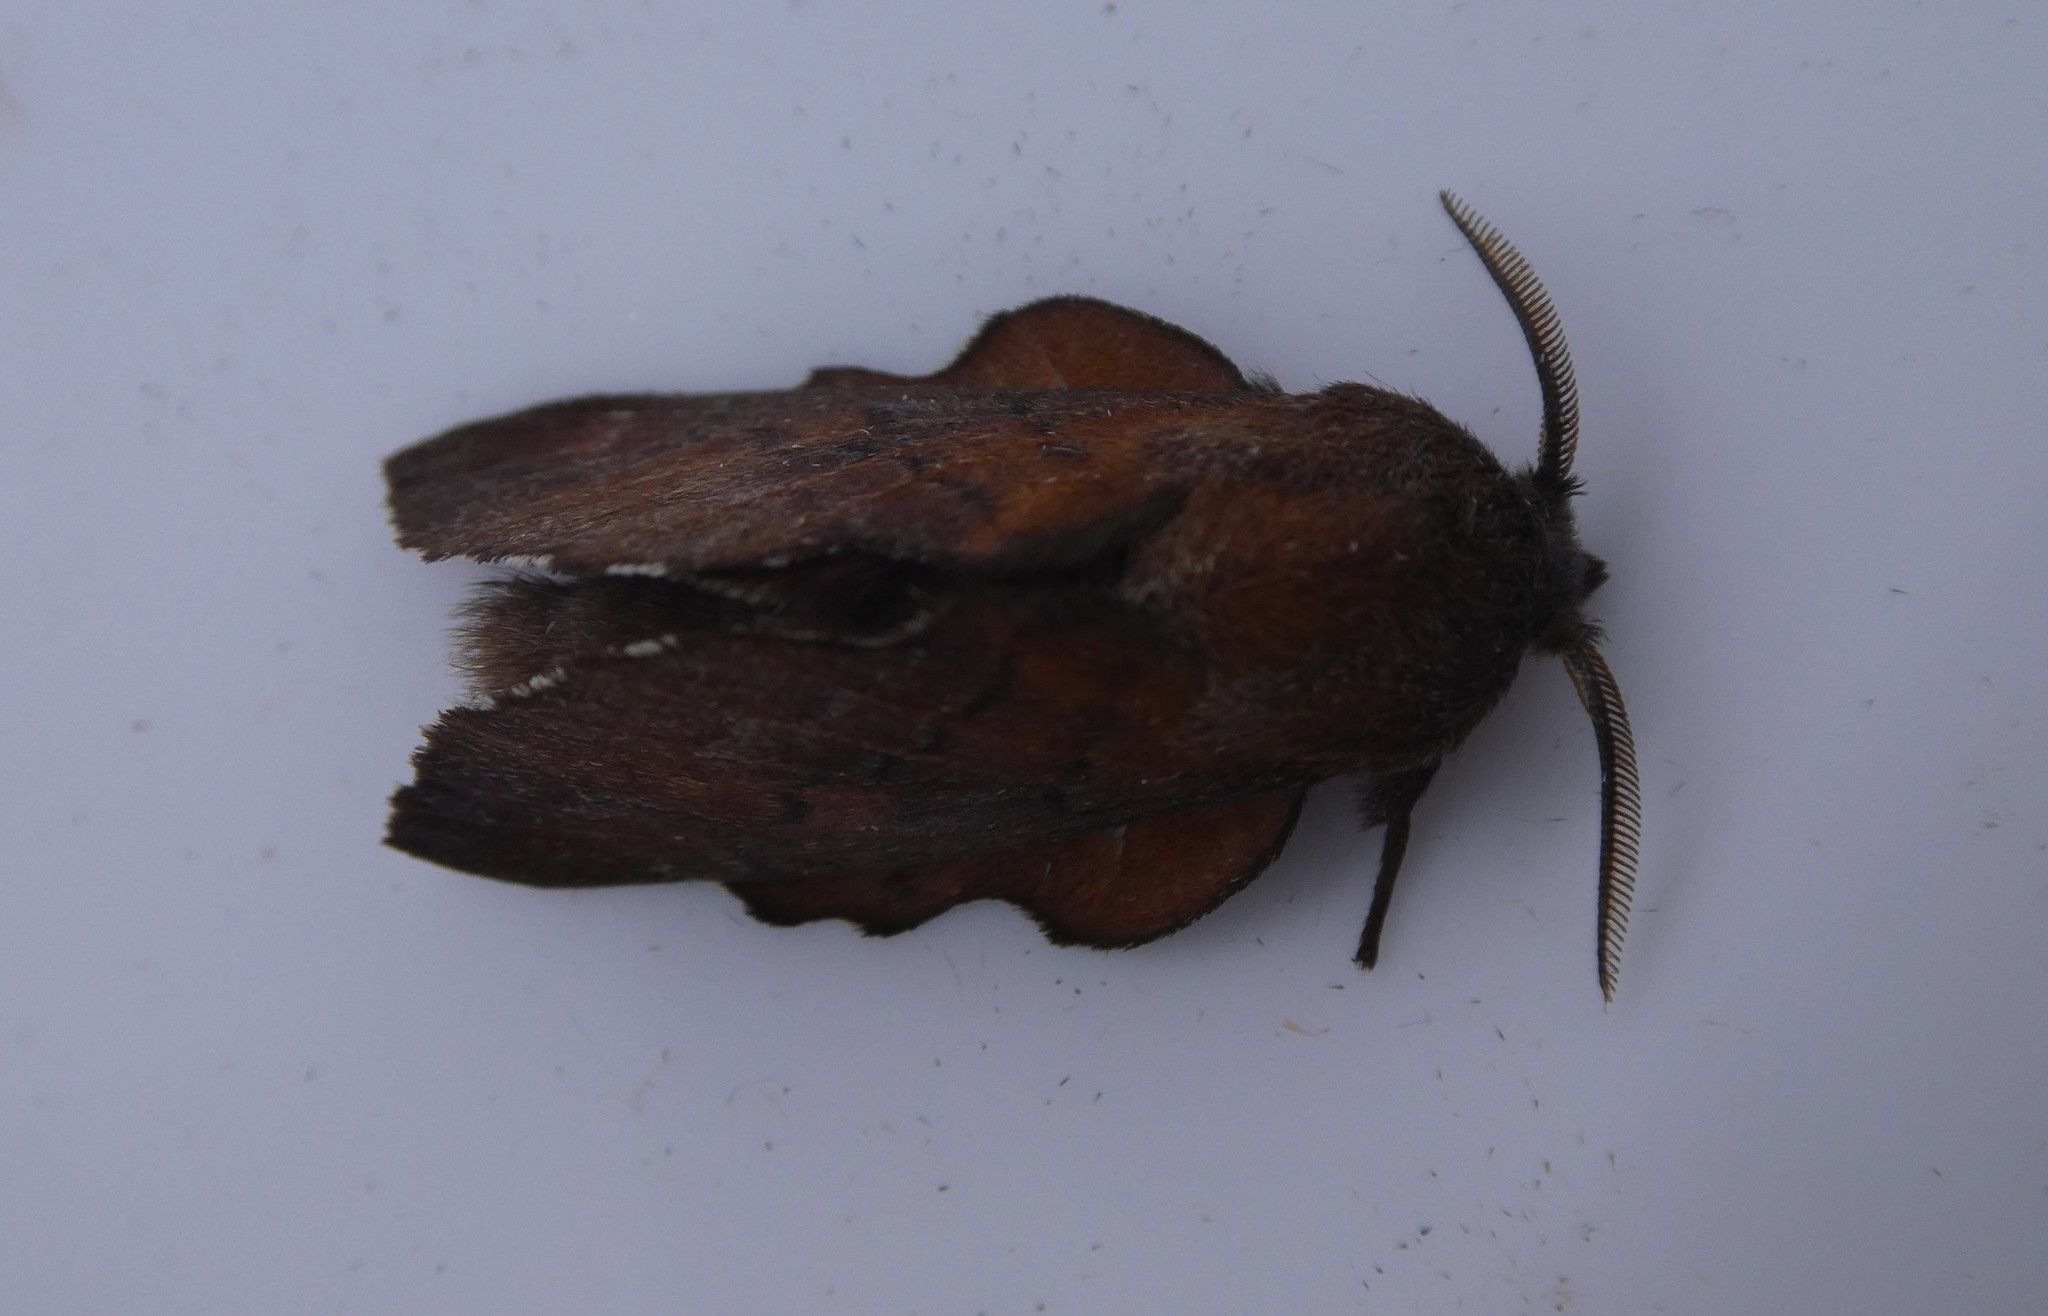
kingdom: Animalia
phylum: Arthropoda
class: Insecta
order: Lepidoptera
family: Lasiocampidae
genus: Phyllodesma
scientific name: Phyllodesma americana
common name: American lappet moth
